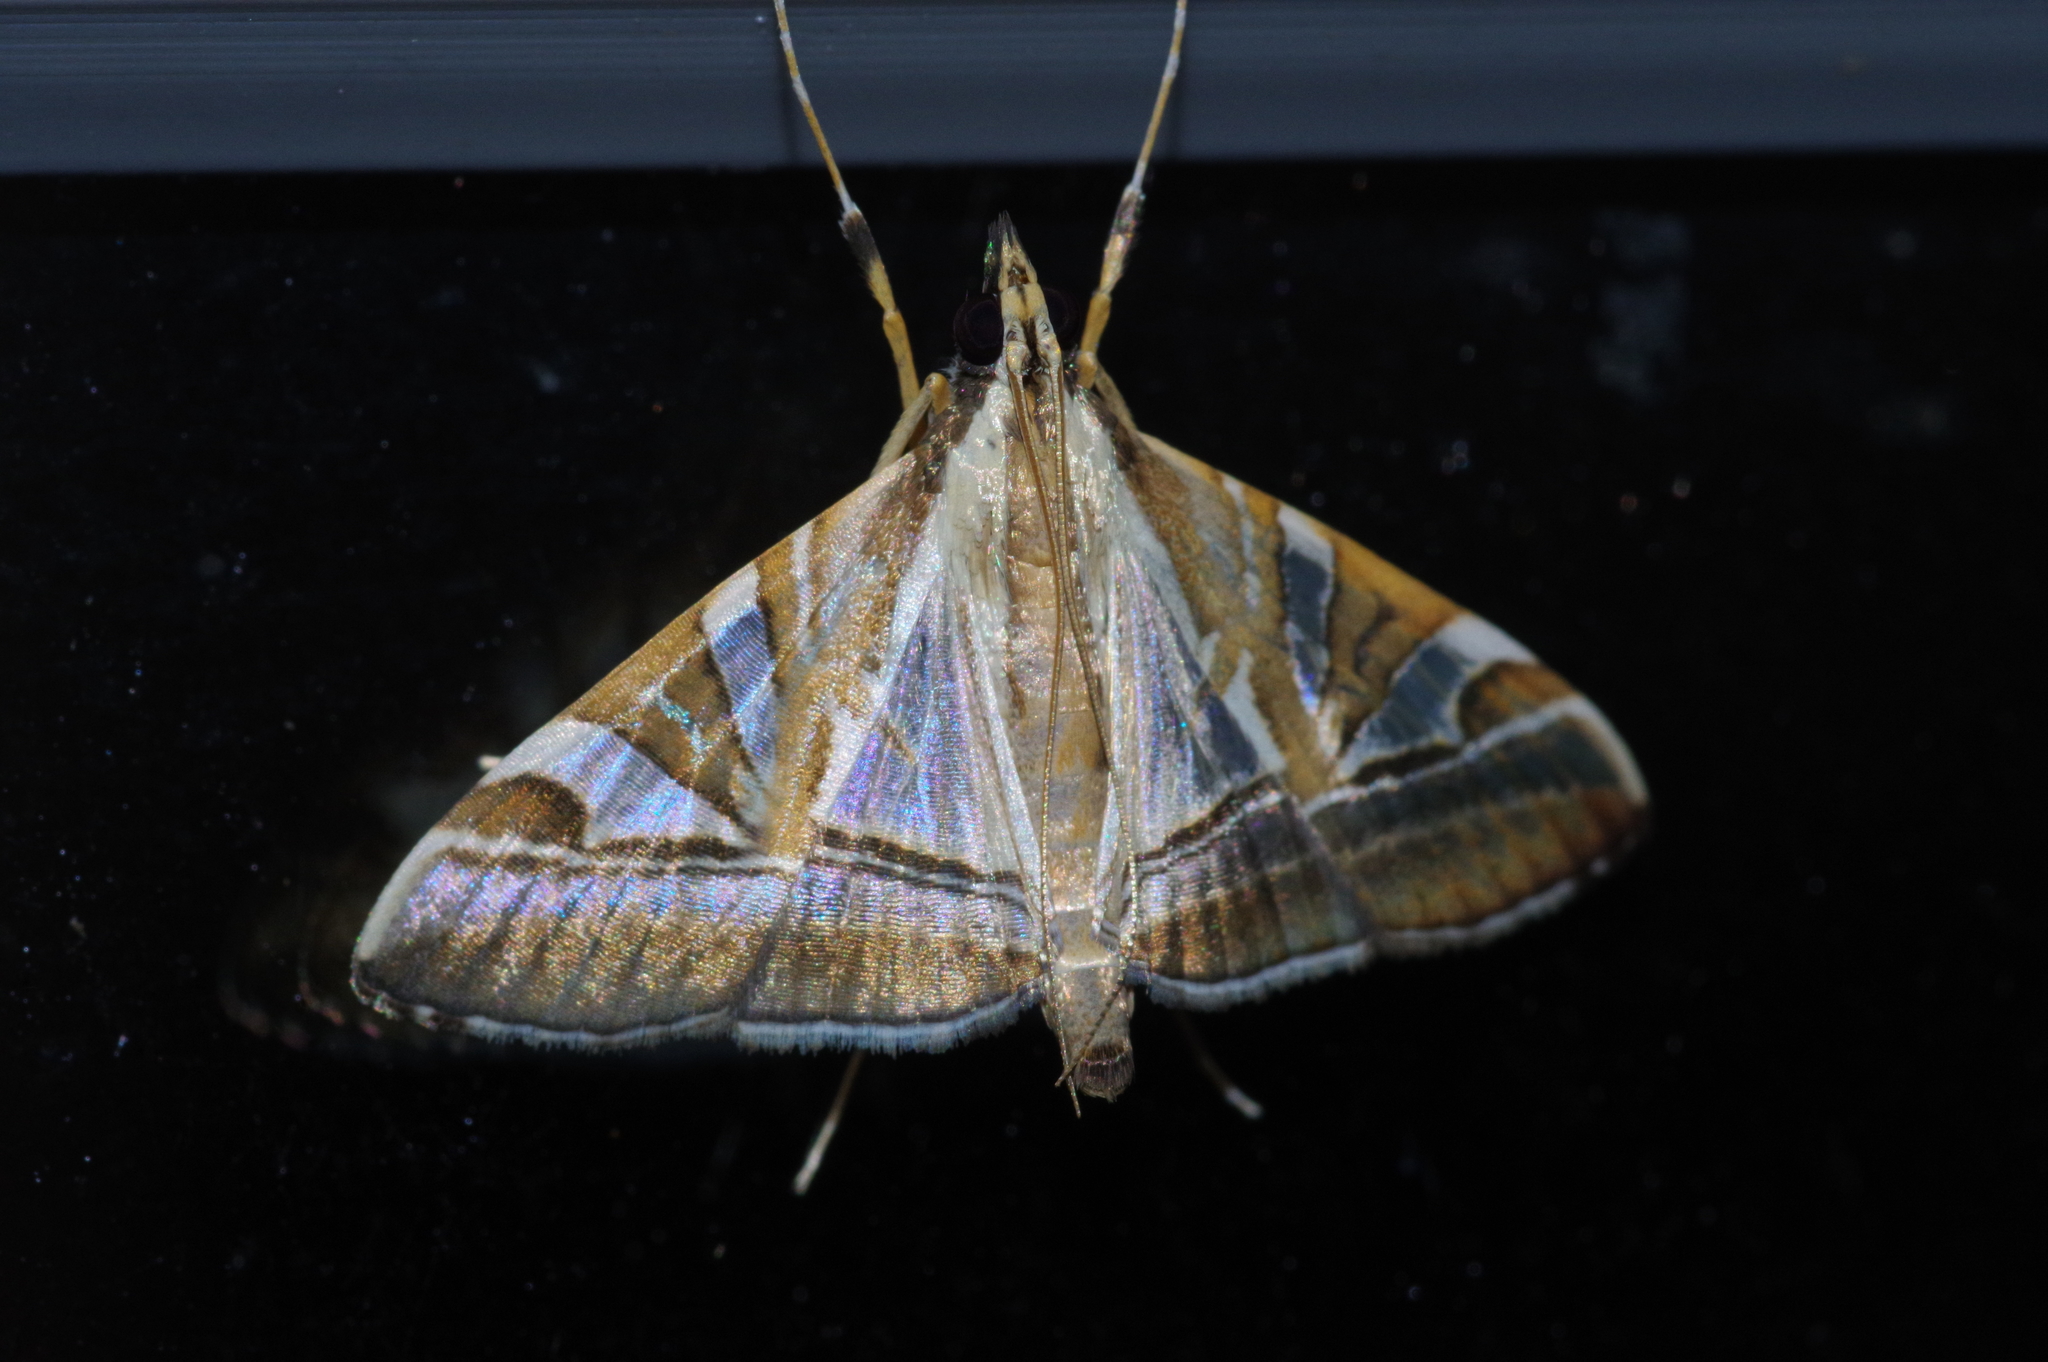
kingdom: Animalia
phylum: Arthropoda
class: Insecta
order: Lepidoptera
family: Crambidae
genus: Agrioglypta
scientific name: Agrioglypta itysalis
